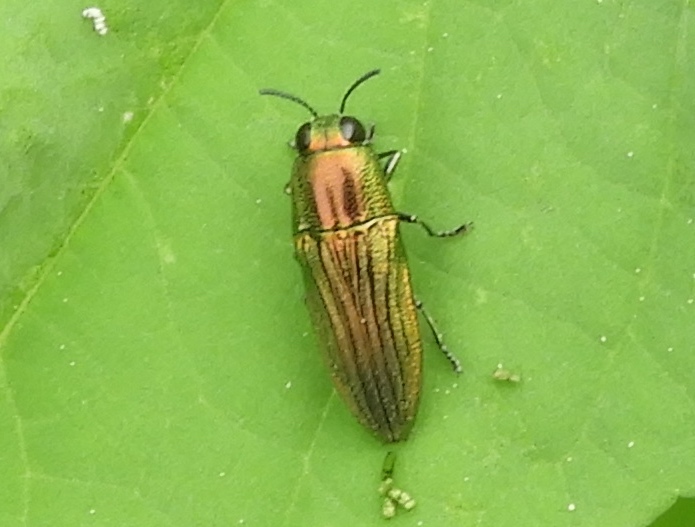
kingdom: Animalia
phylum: Arthropoda
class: Insecta
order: Coleoptera
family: Buprestidae
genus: Agaeocera
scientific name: Agaeocera scintillans
